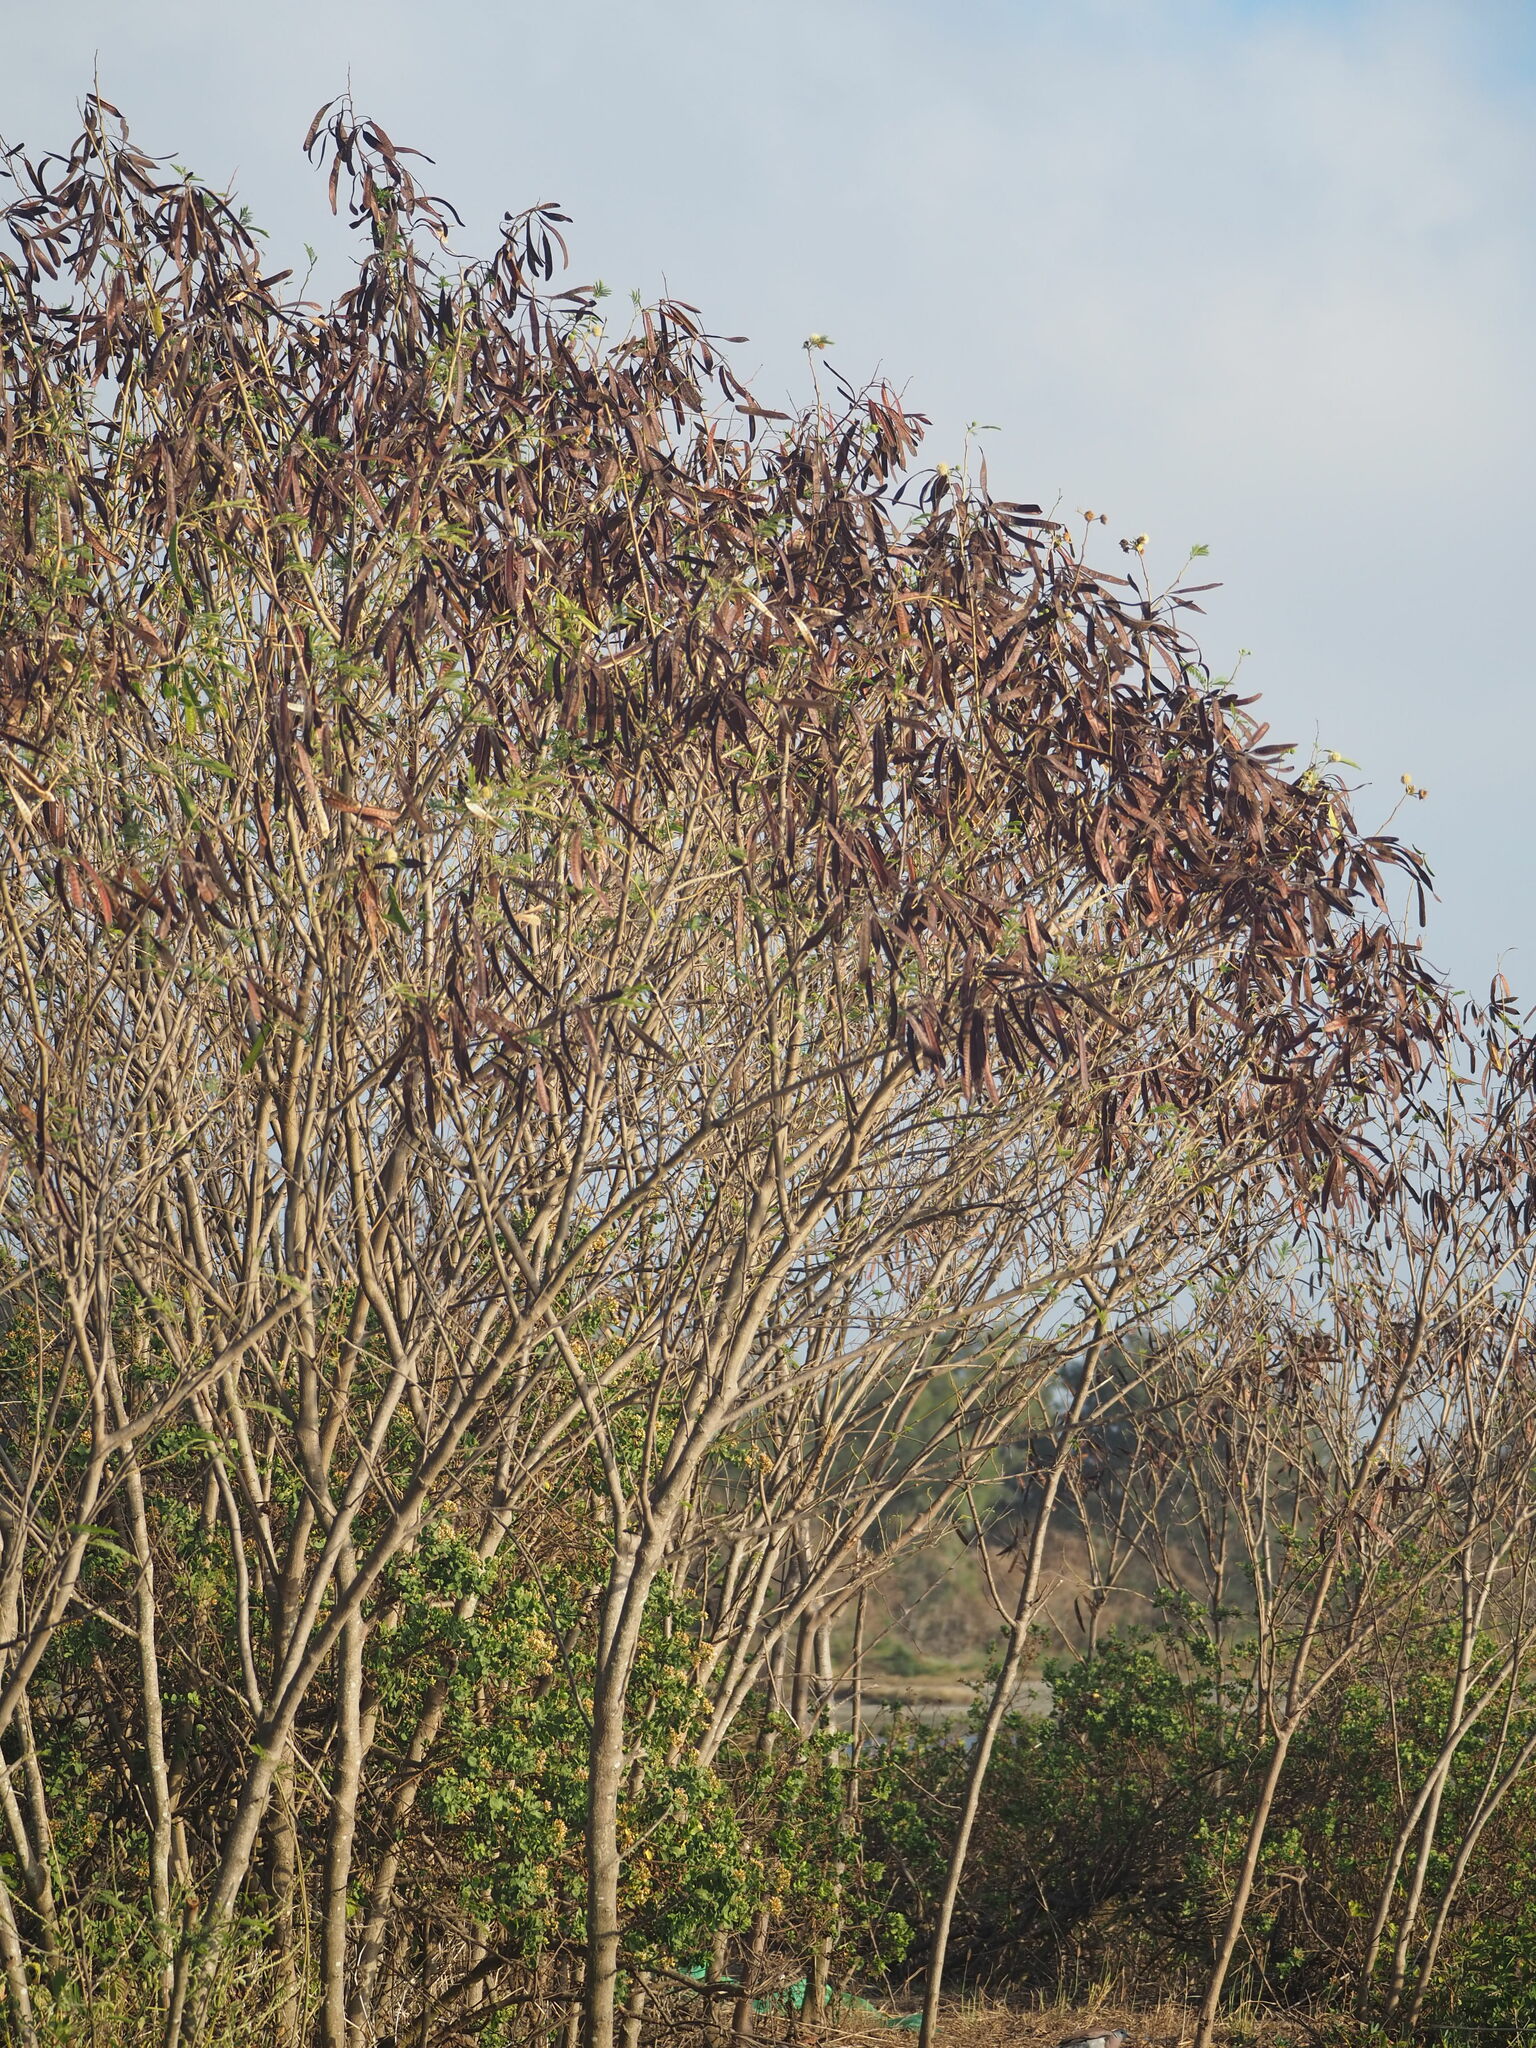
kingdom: Plantae
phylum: Tracheophyta
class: Magnoliopsida
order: Fabales
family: Fabaceae
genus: Leucaena
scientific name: Leucaena leucocephala
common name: White leadtree
